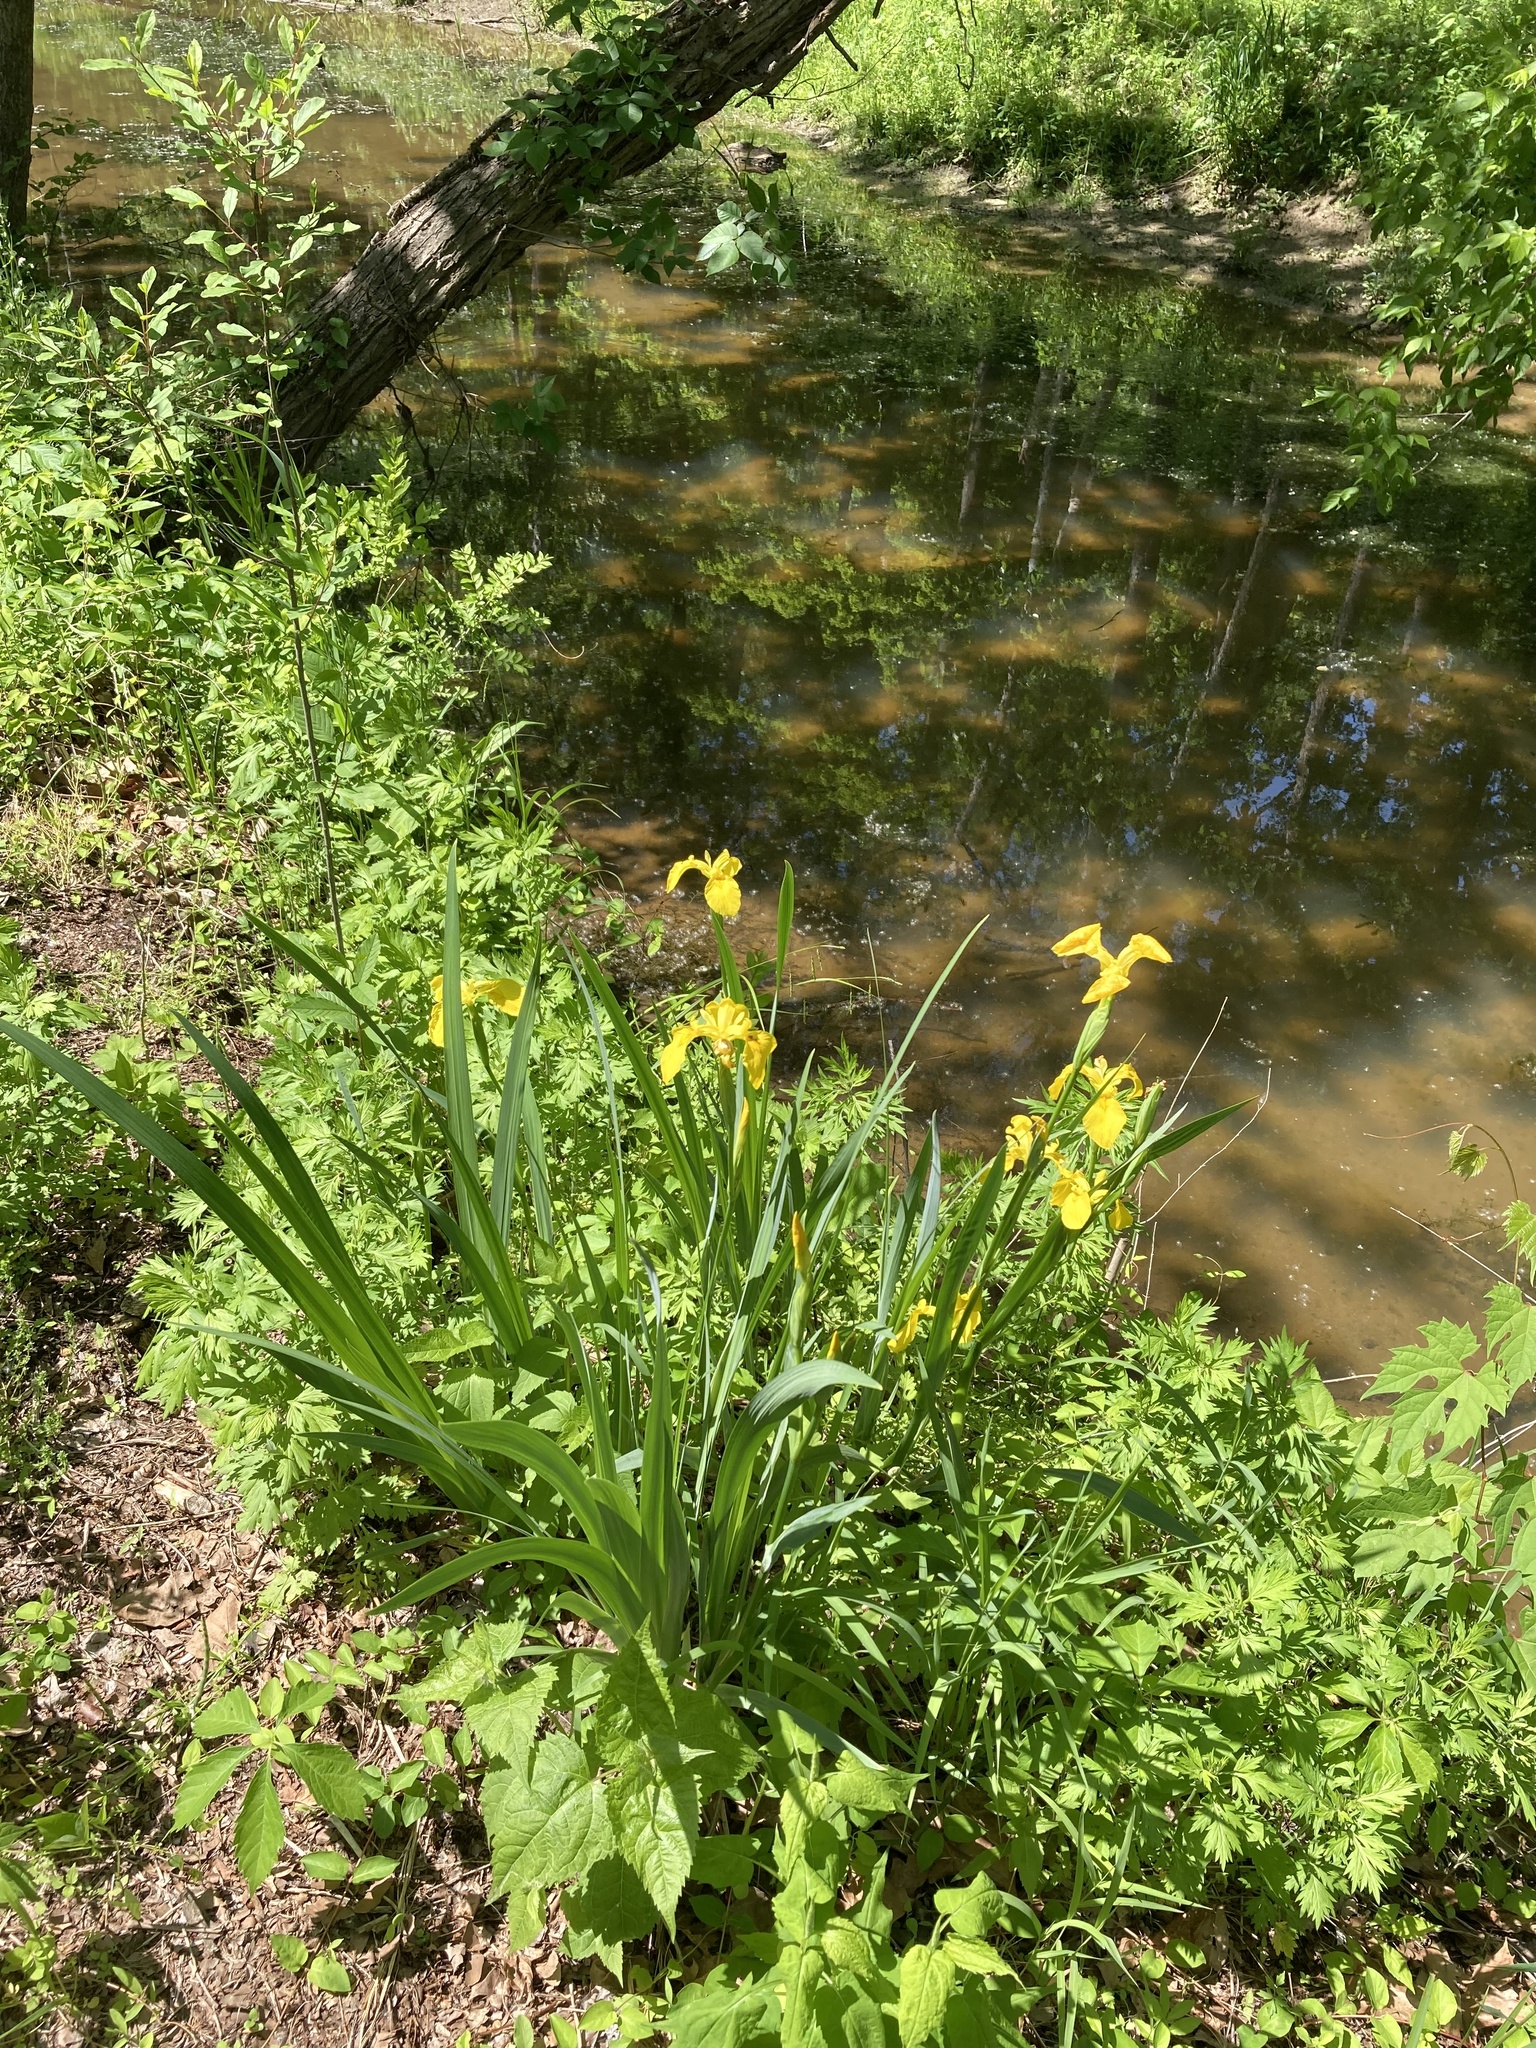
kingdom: Plantae
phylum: Tracheophyta
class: Liliopsida
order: Asparagales
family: Iridaceae
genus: Iris
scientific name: Iris pseudacorus
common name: Yellow flag
